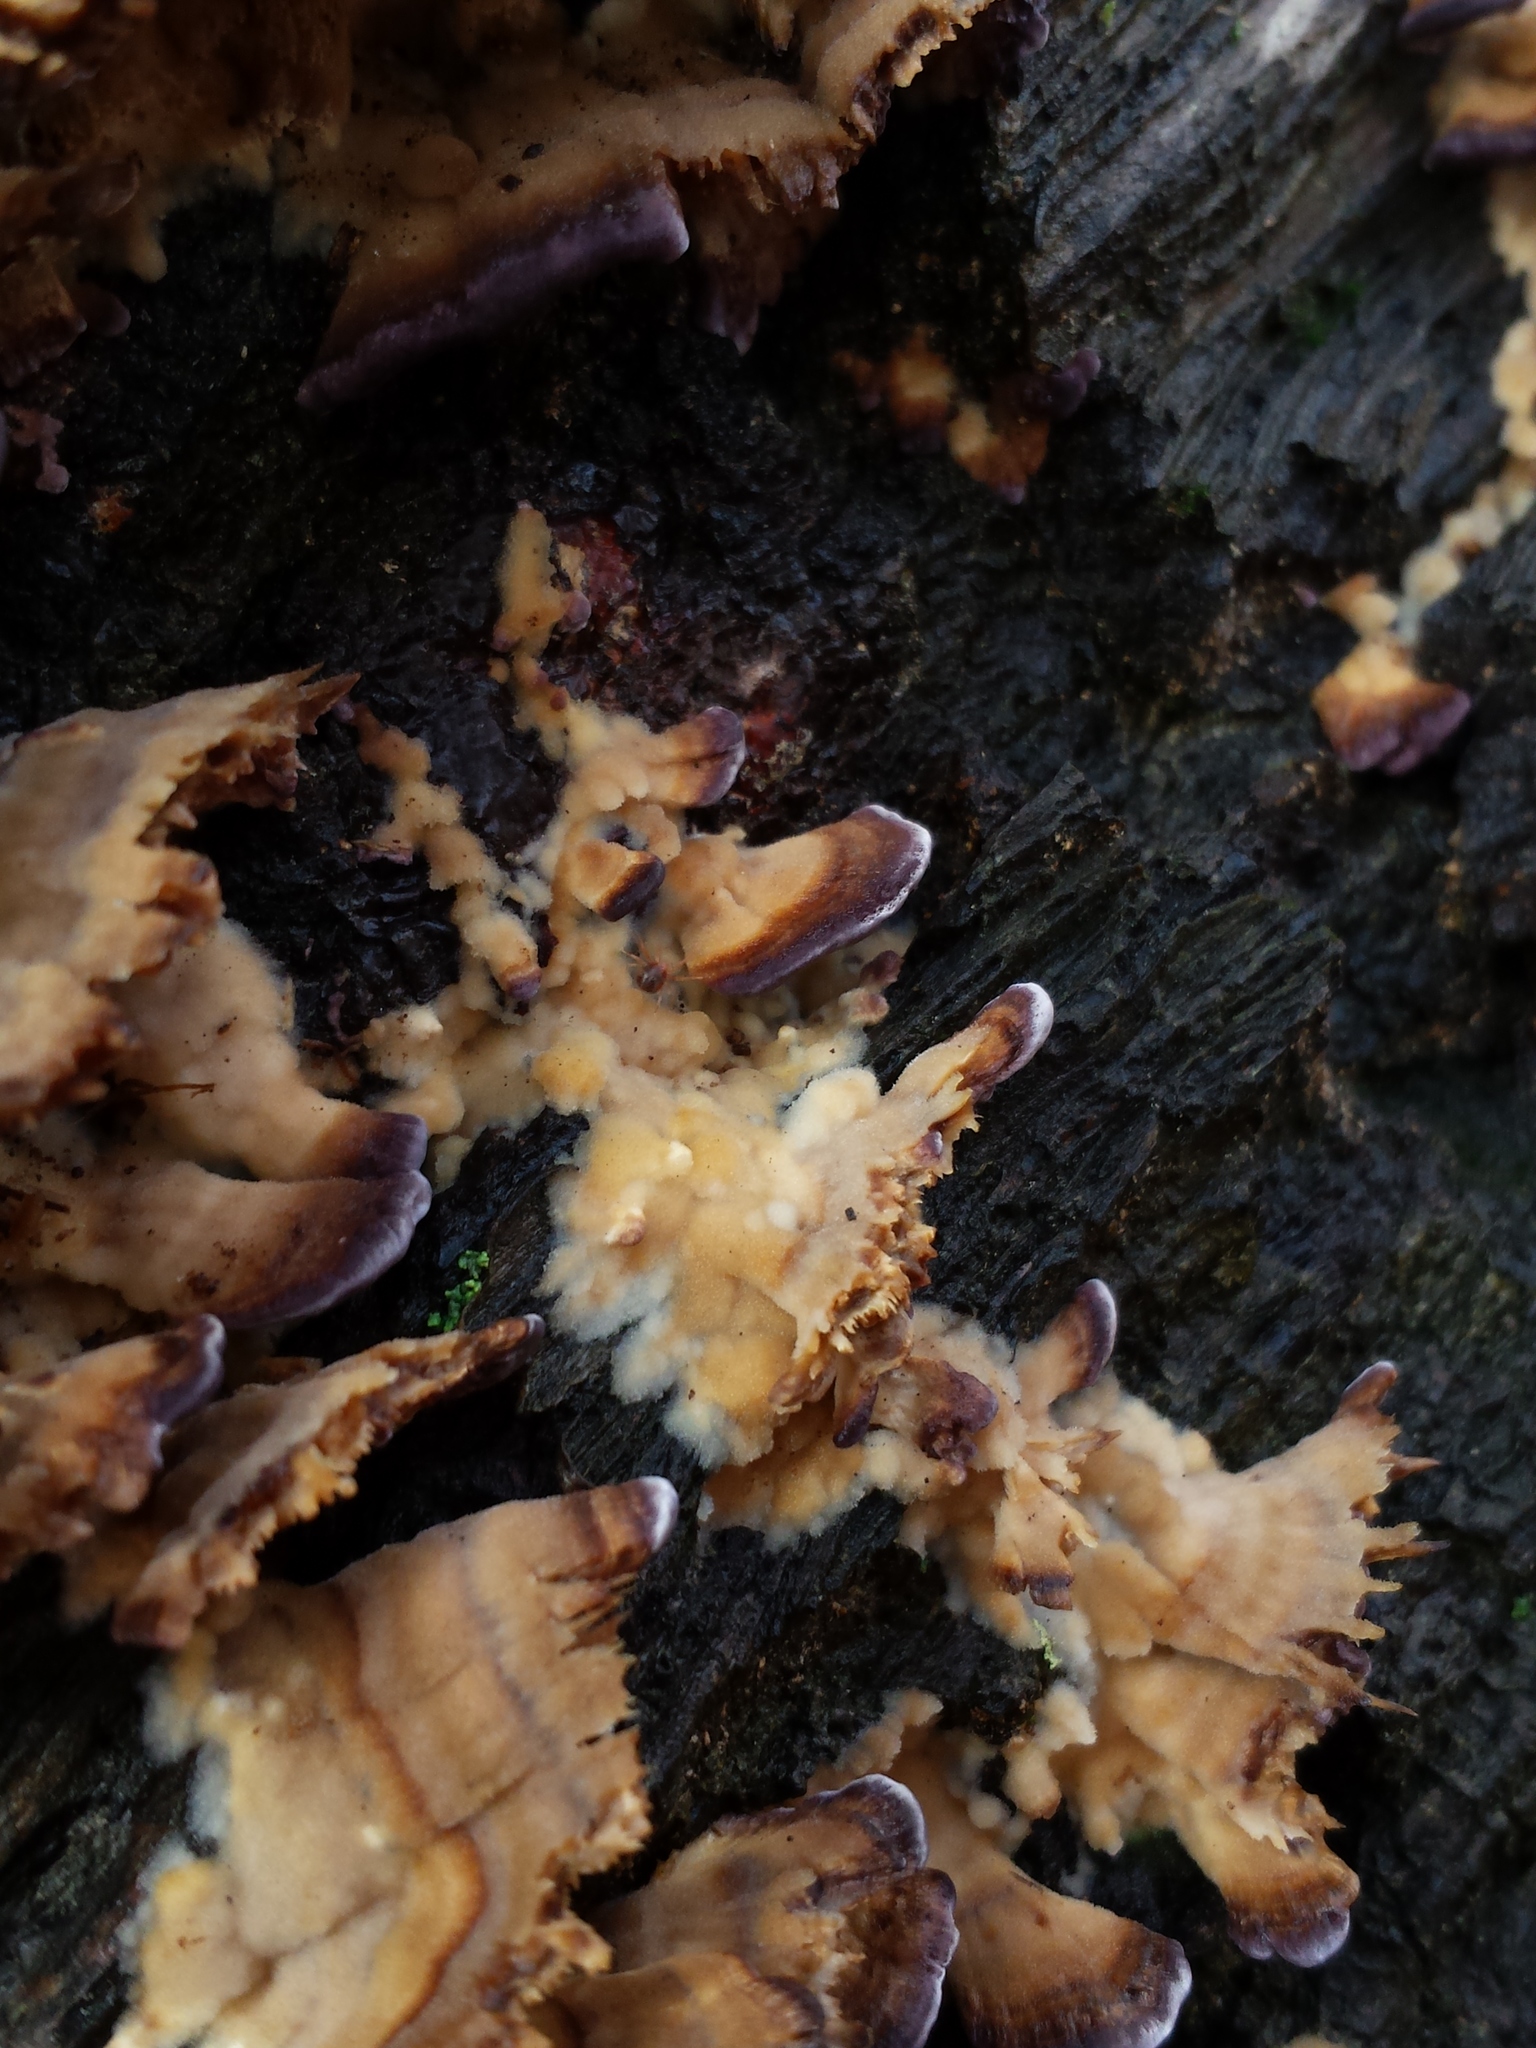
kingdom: Fungi
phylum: Basidiomycota
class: Agaricomycetes
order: Hymenochaetales
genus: Trichaptum
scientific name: Trichaptum biforme
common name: Violet-toothed polypore
